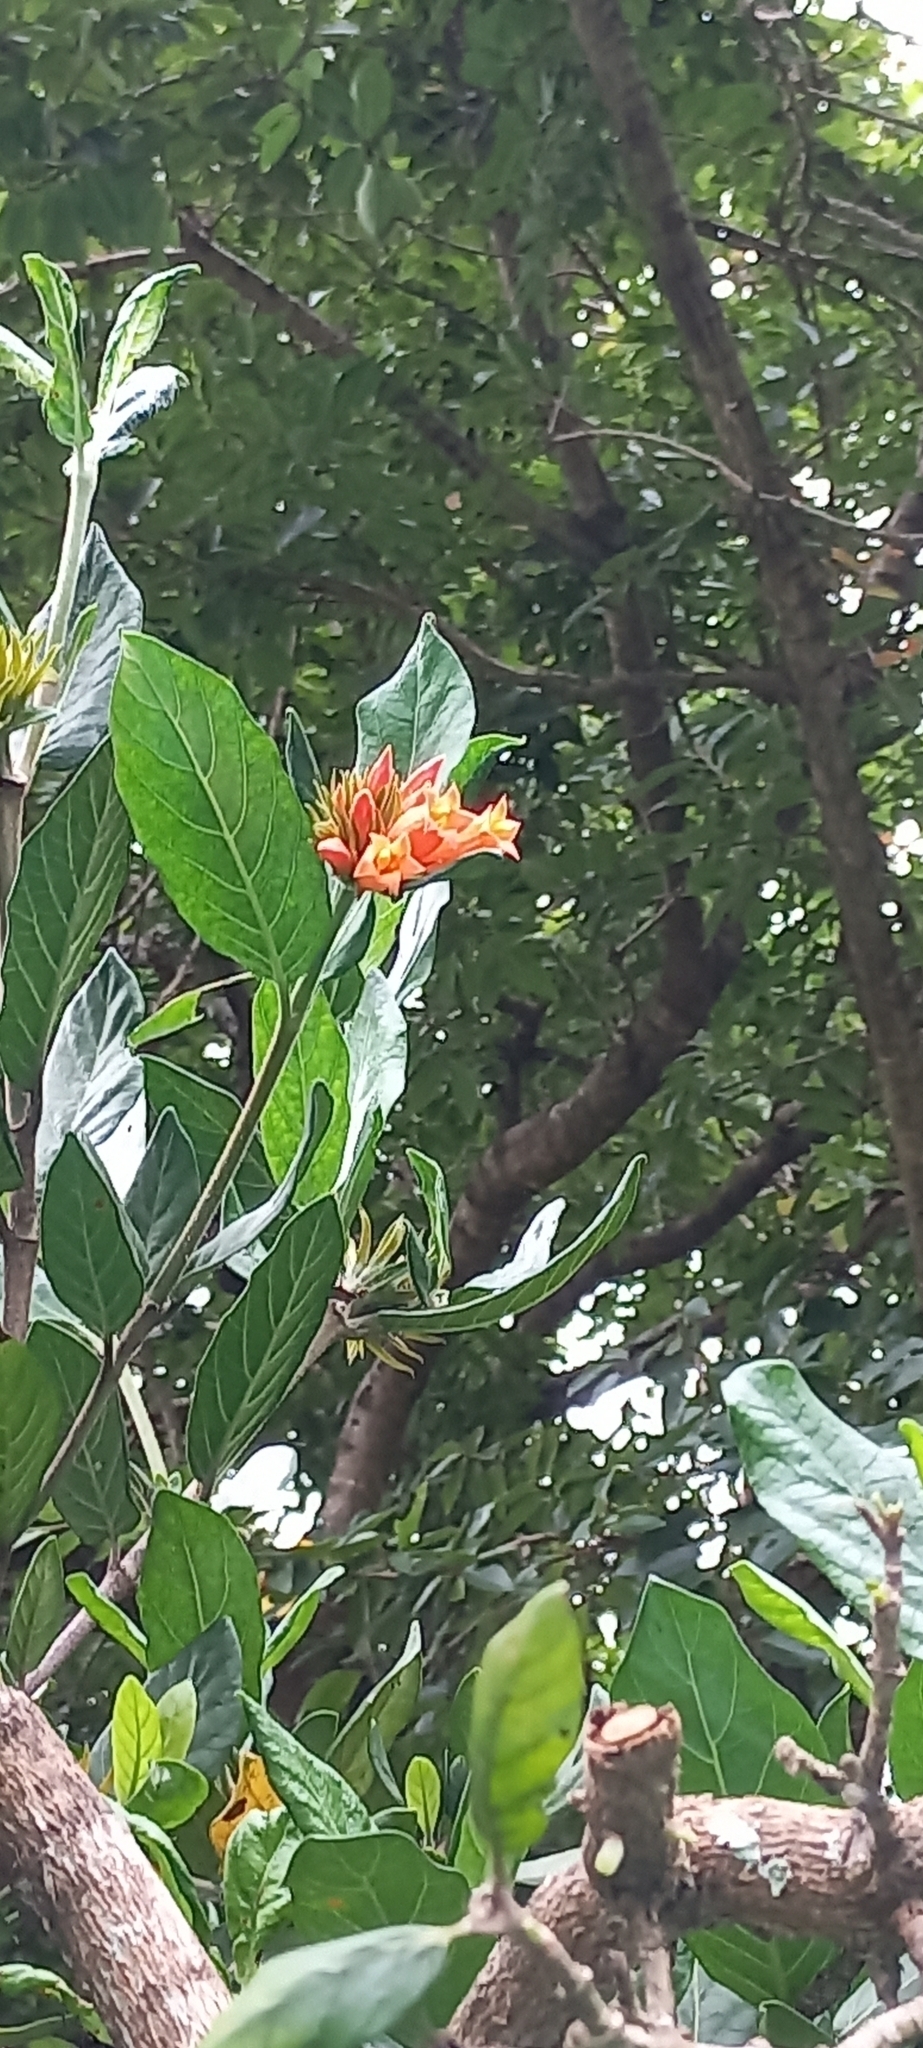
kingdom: Plantae
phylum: Tracheophyta
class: Magnoliopsida
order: Gentianales
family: Rubiaceae
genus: Burchellia
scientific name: Burchellia bubalina
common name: Wild pomegranate
